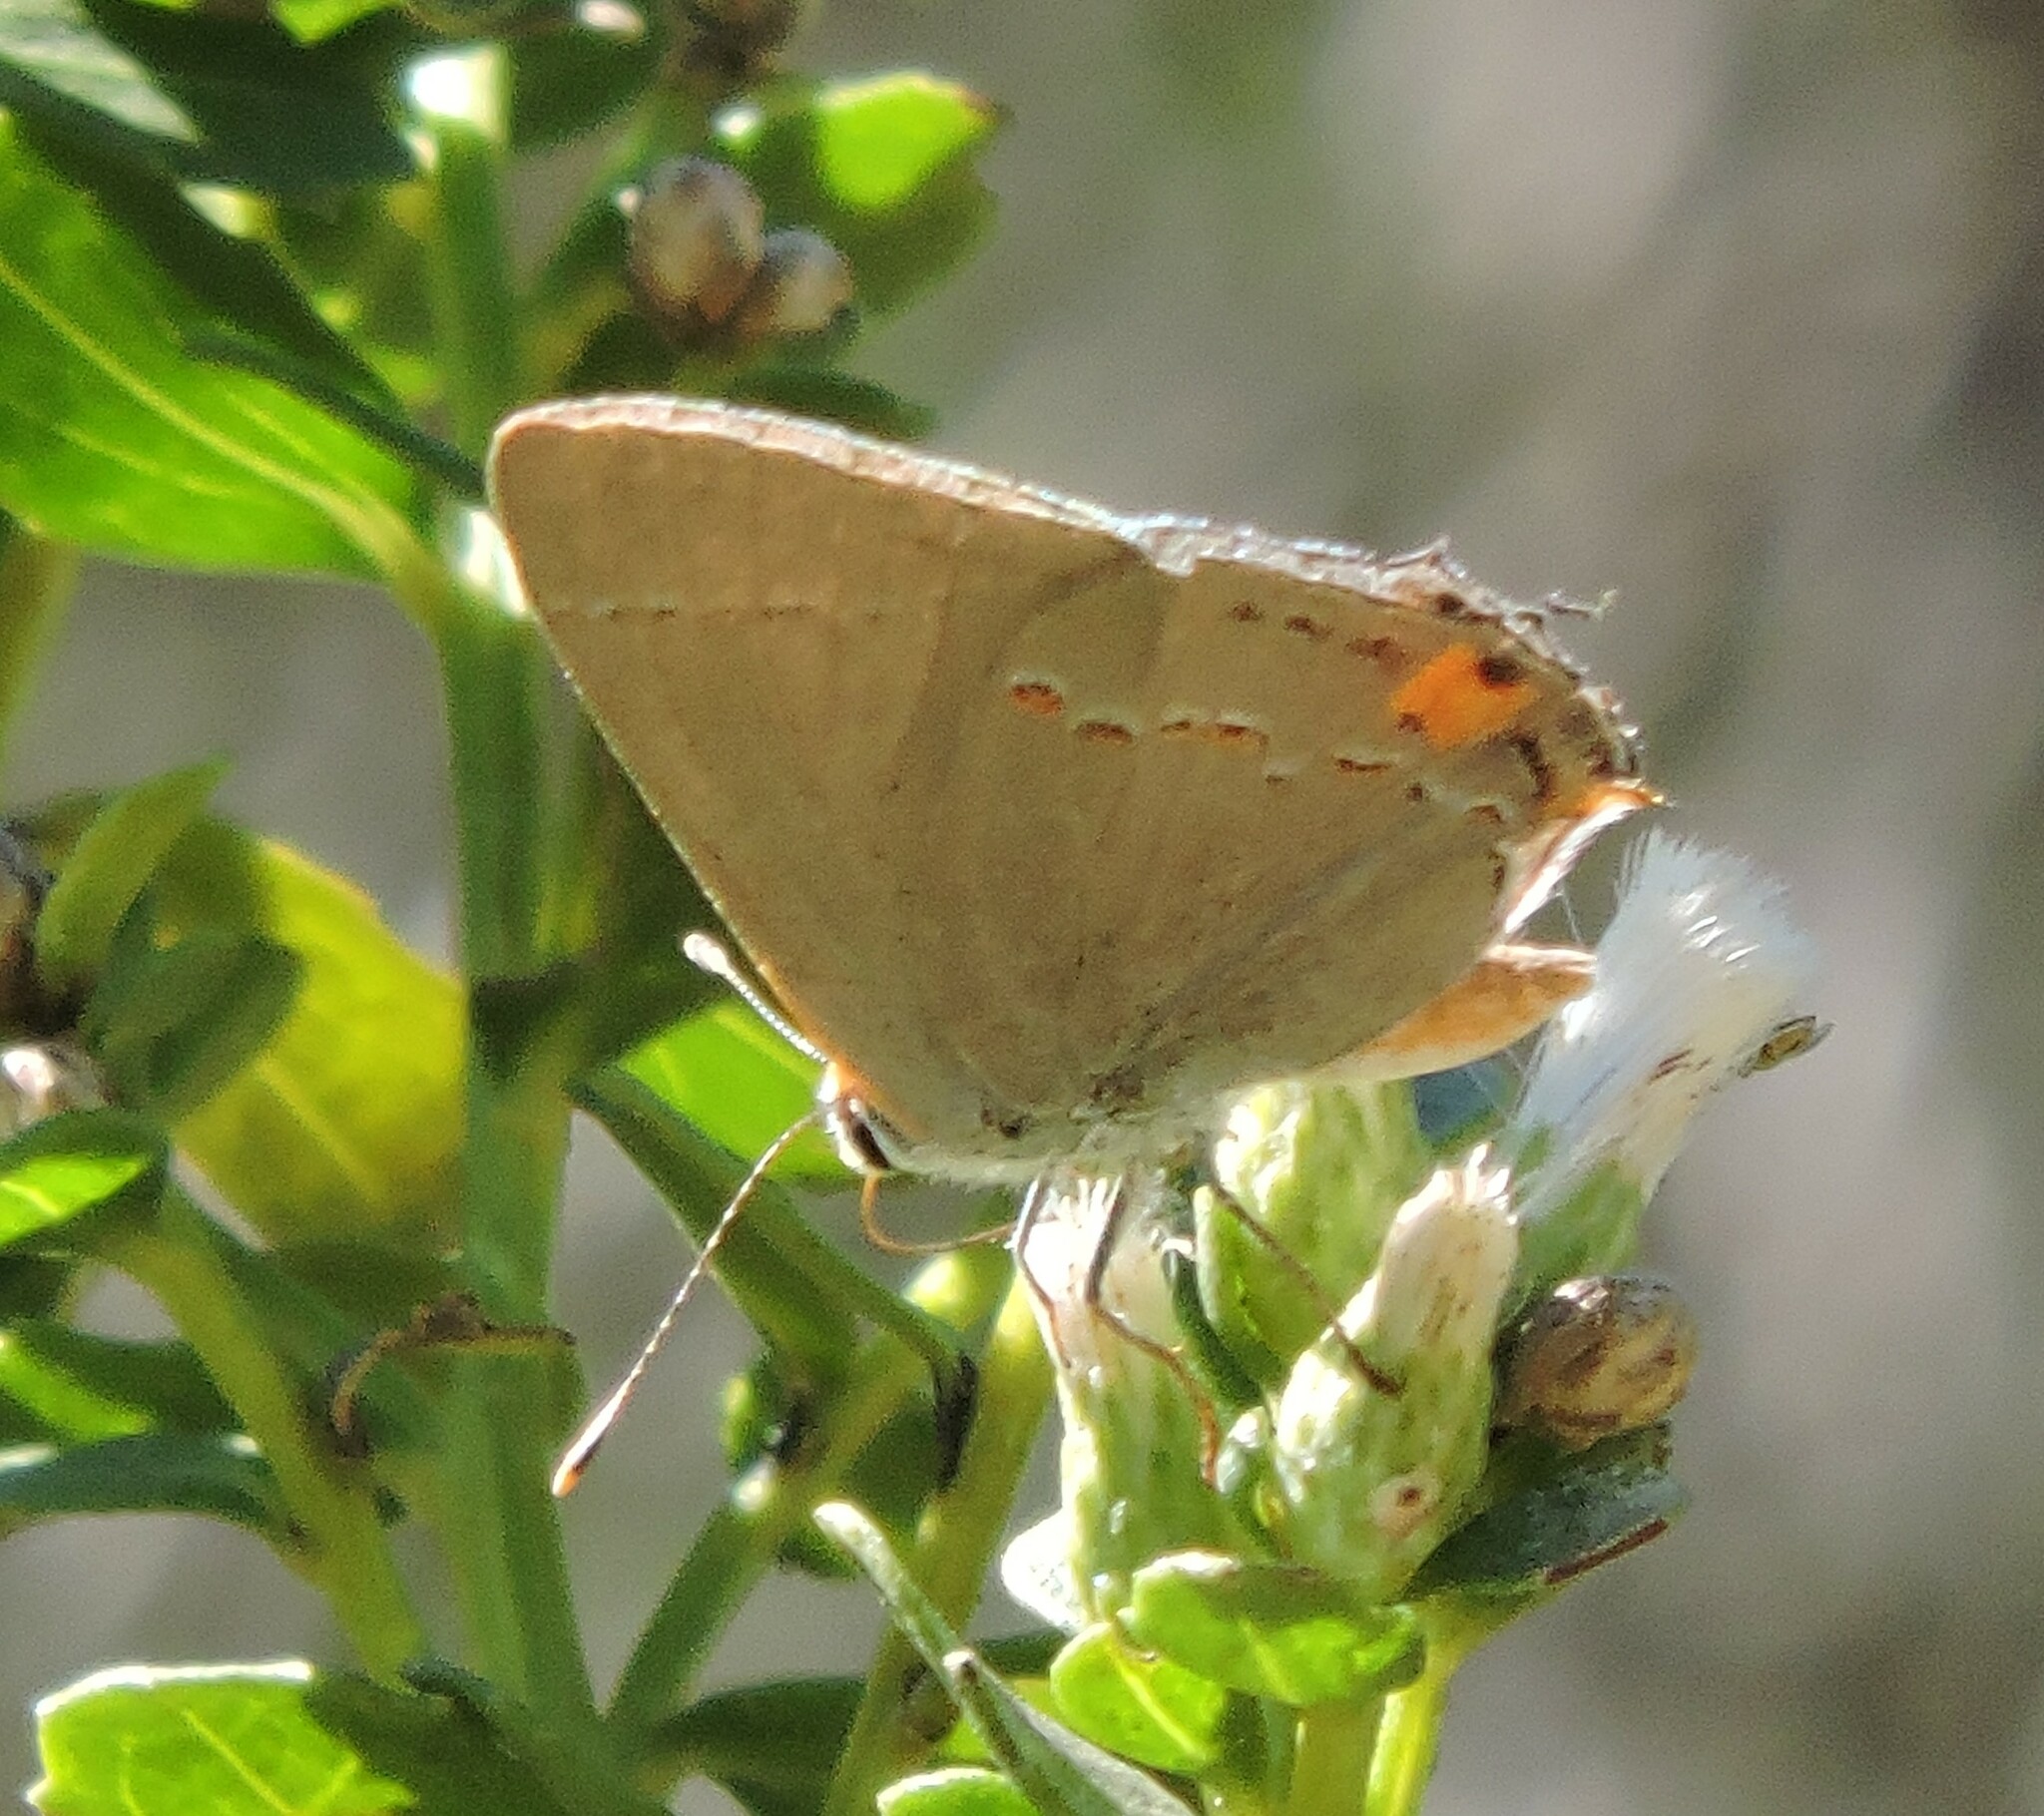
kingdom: Animalia
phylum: Arthropoda
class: Insecta
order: Lepidoptera
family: Lycaenidae
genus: Strymon
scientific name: Strymon melinus
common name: Gray hairstreak
